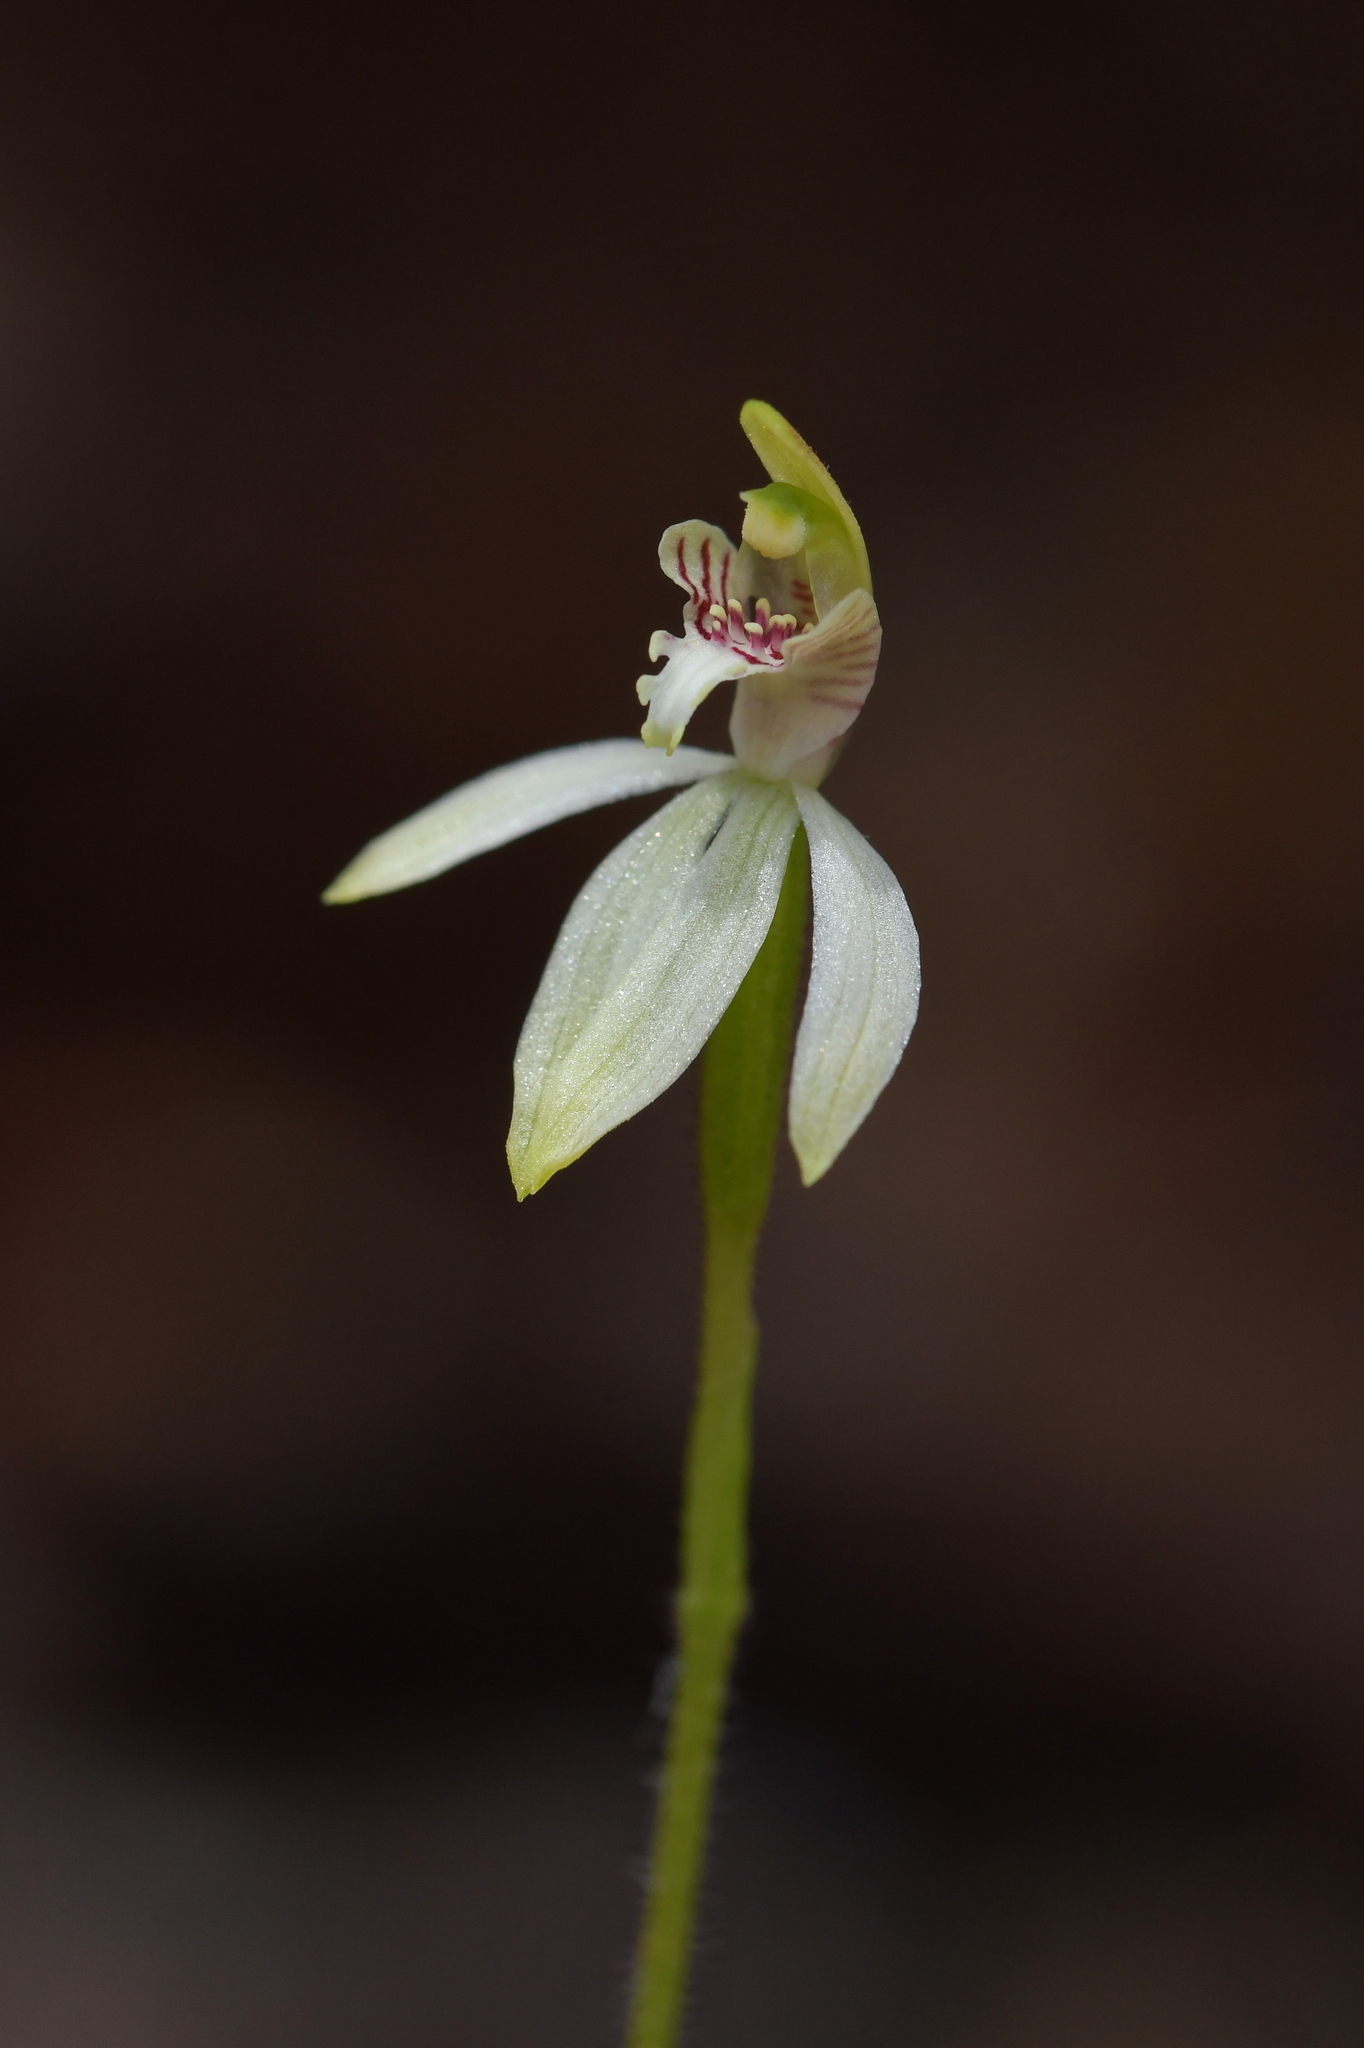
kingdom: Plantae
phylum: Tracheophyta
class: Liliopsida
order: Asparagales
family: Orchidaceae
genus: Caladenia
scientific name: Caladenia chlorostyla
